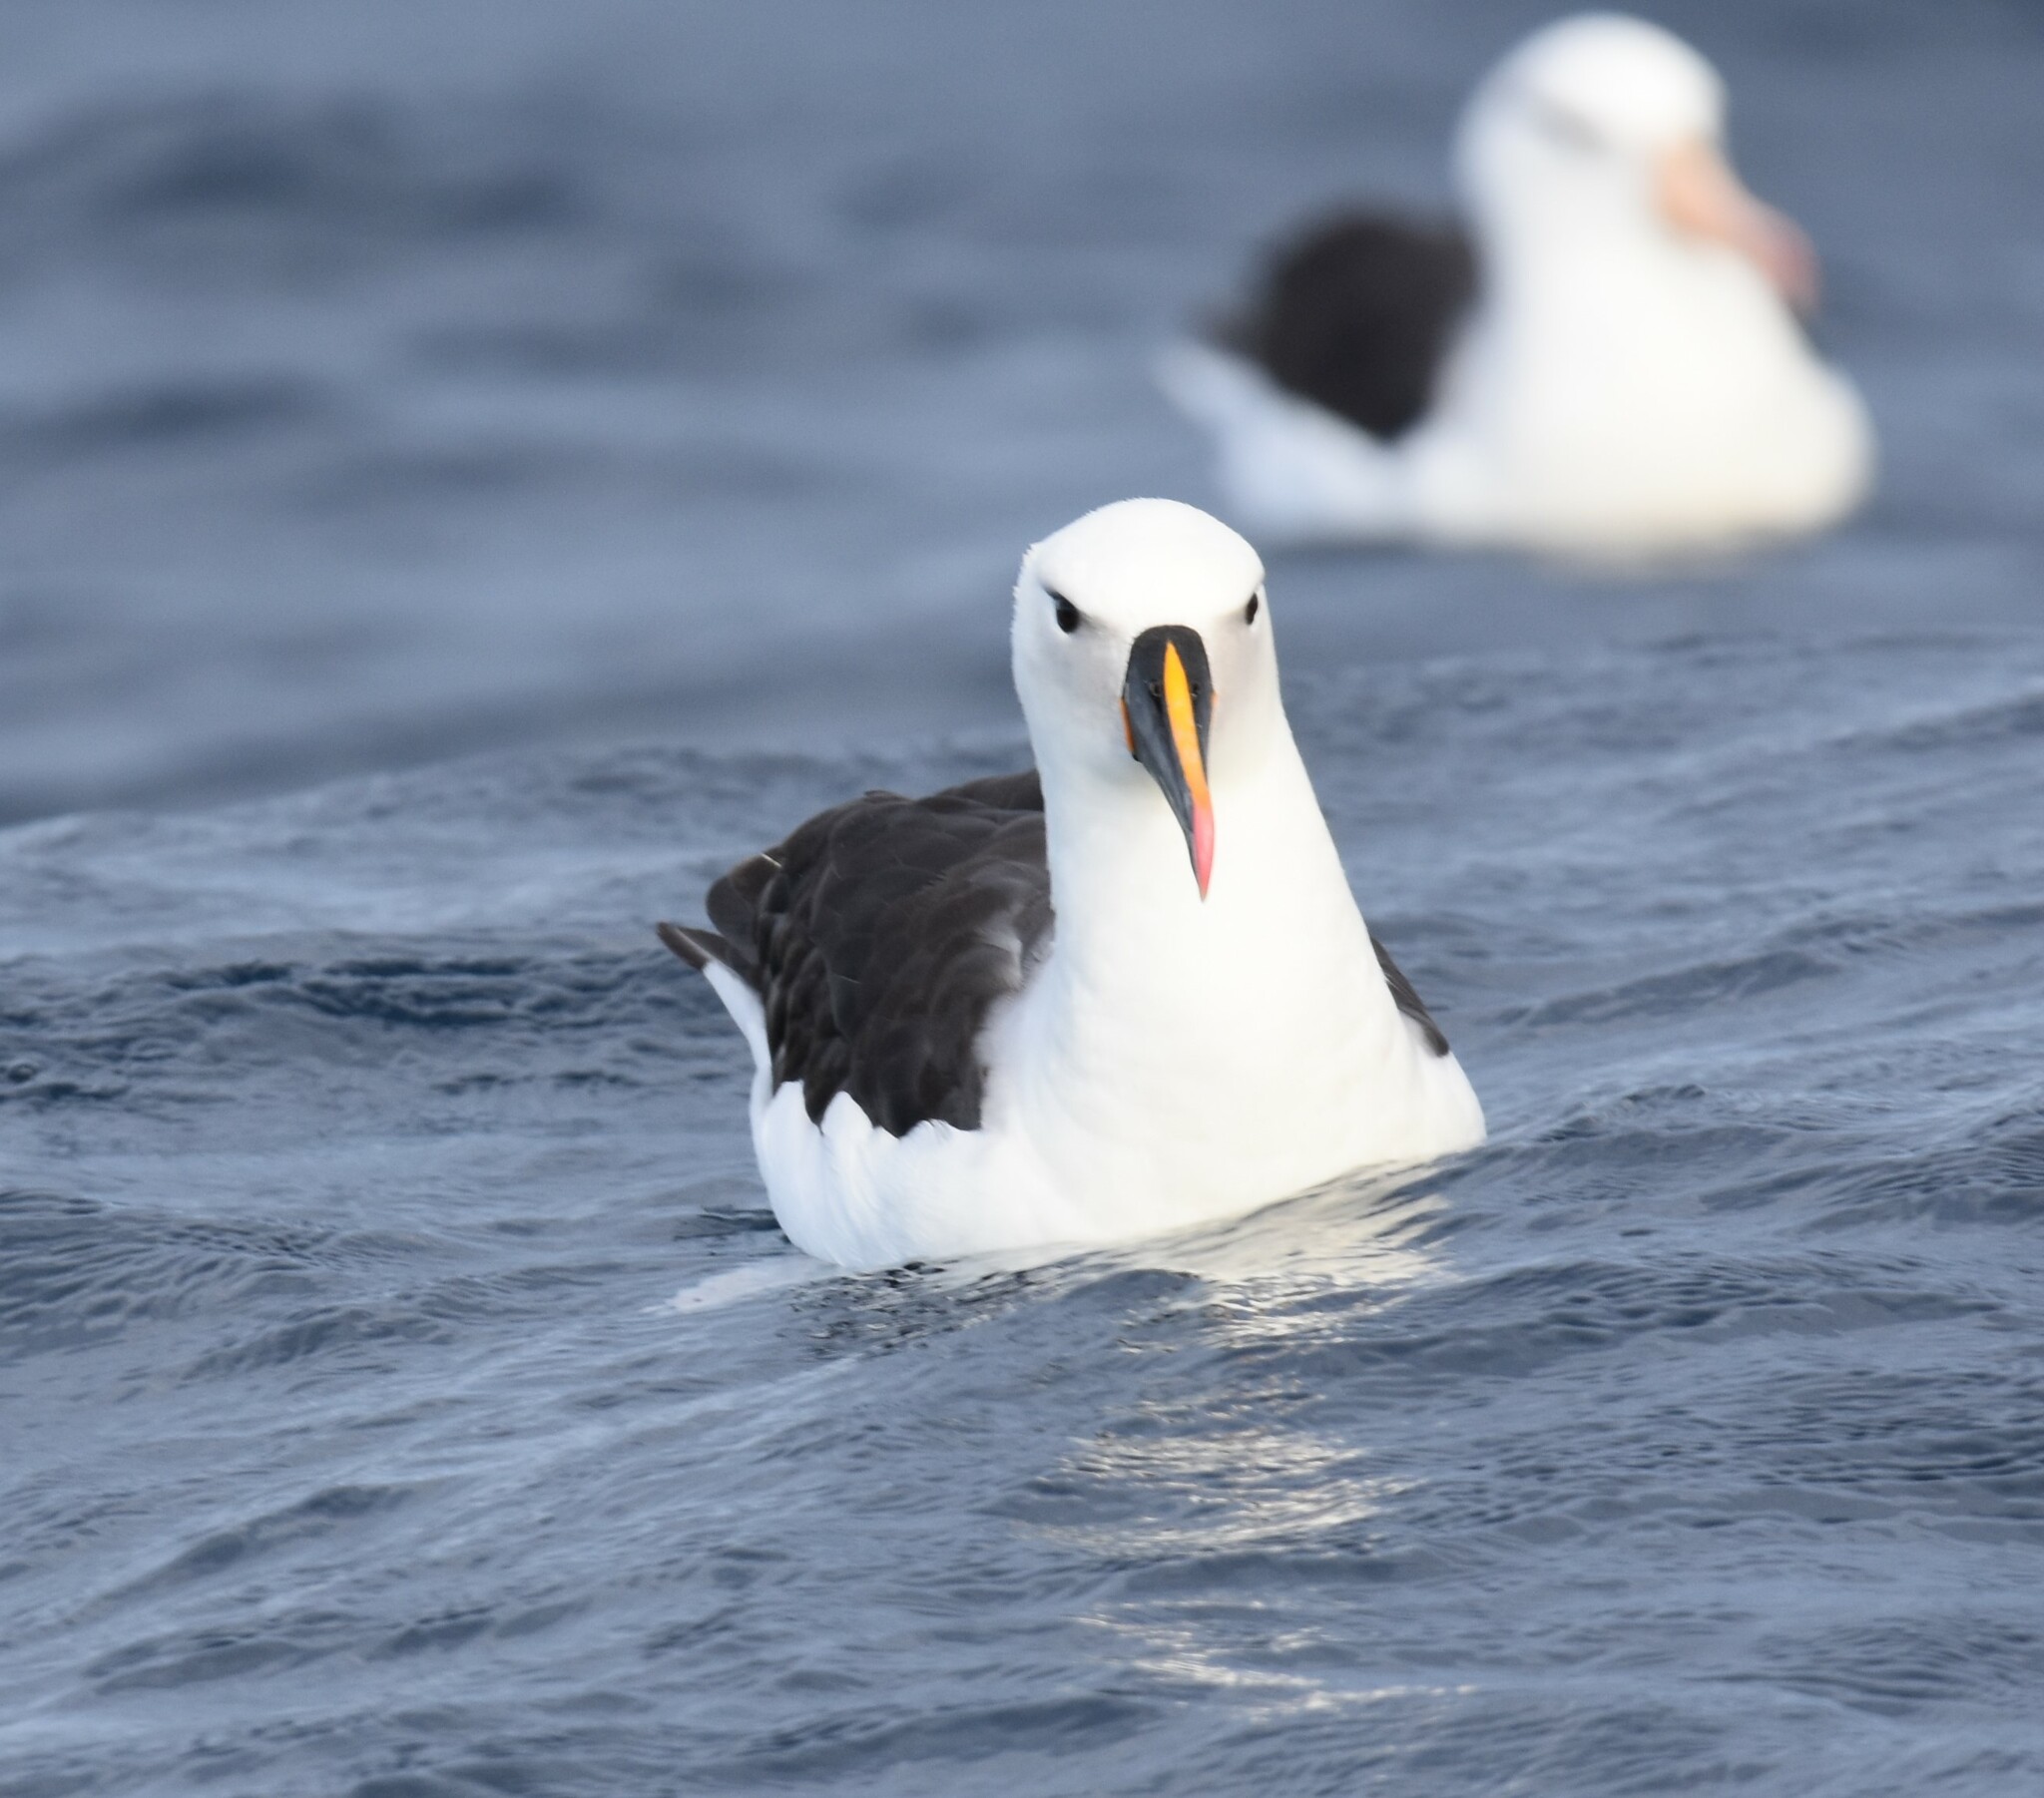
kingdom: Animalia
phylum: Chordata
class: Aves
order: Procellariiformes
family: Diomedeidae
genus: Thalassarche
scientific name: Thalassarche carteri
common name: Indian yellow-nosed albatross
